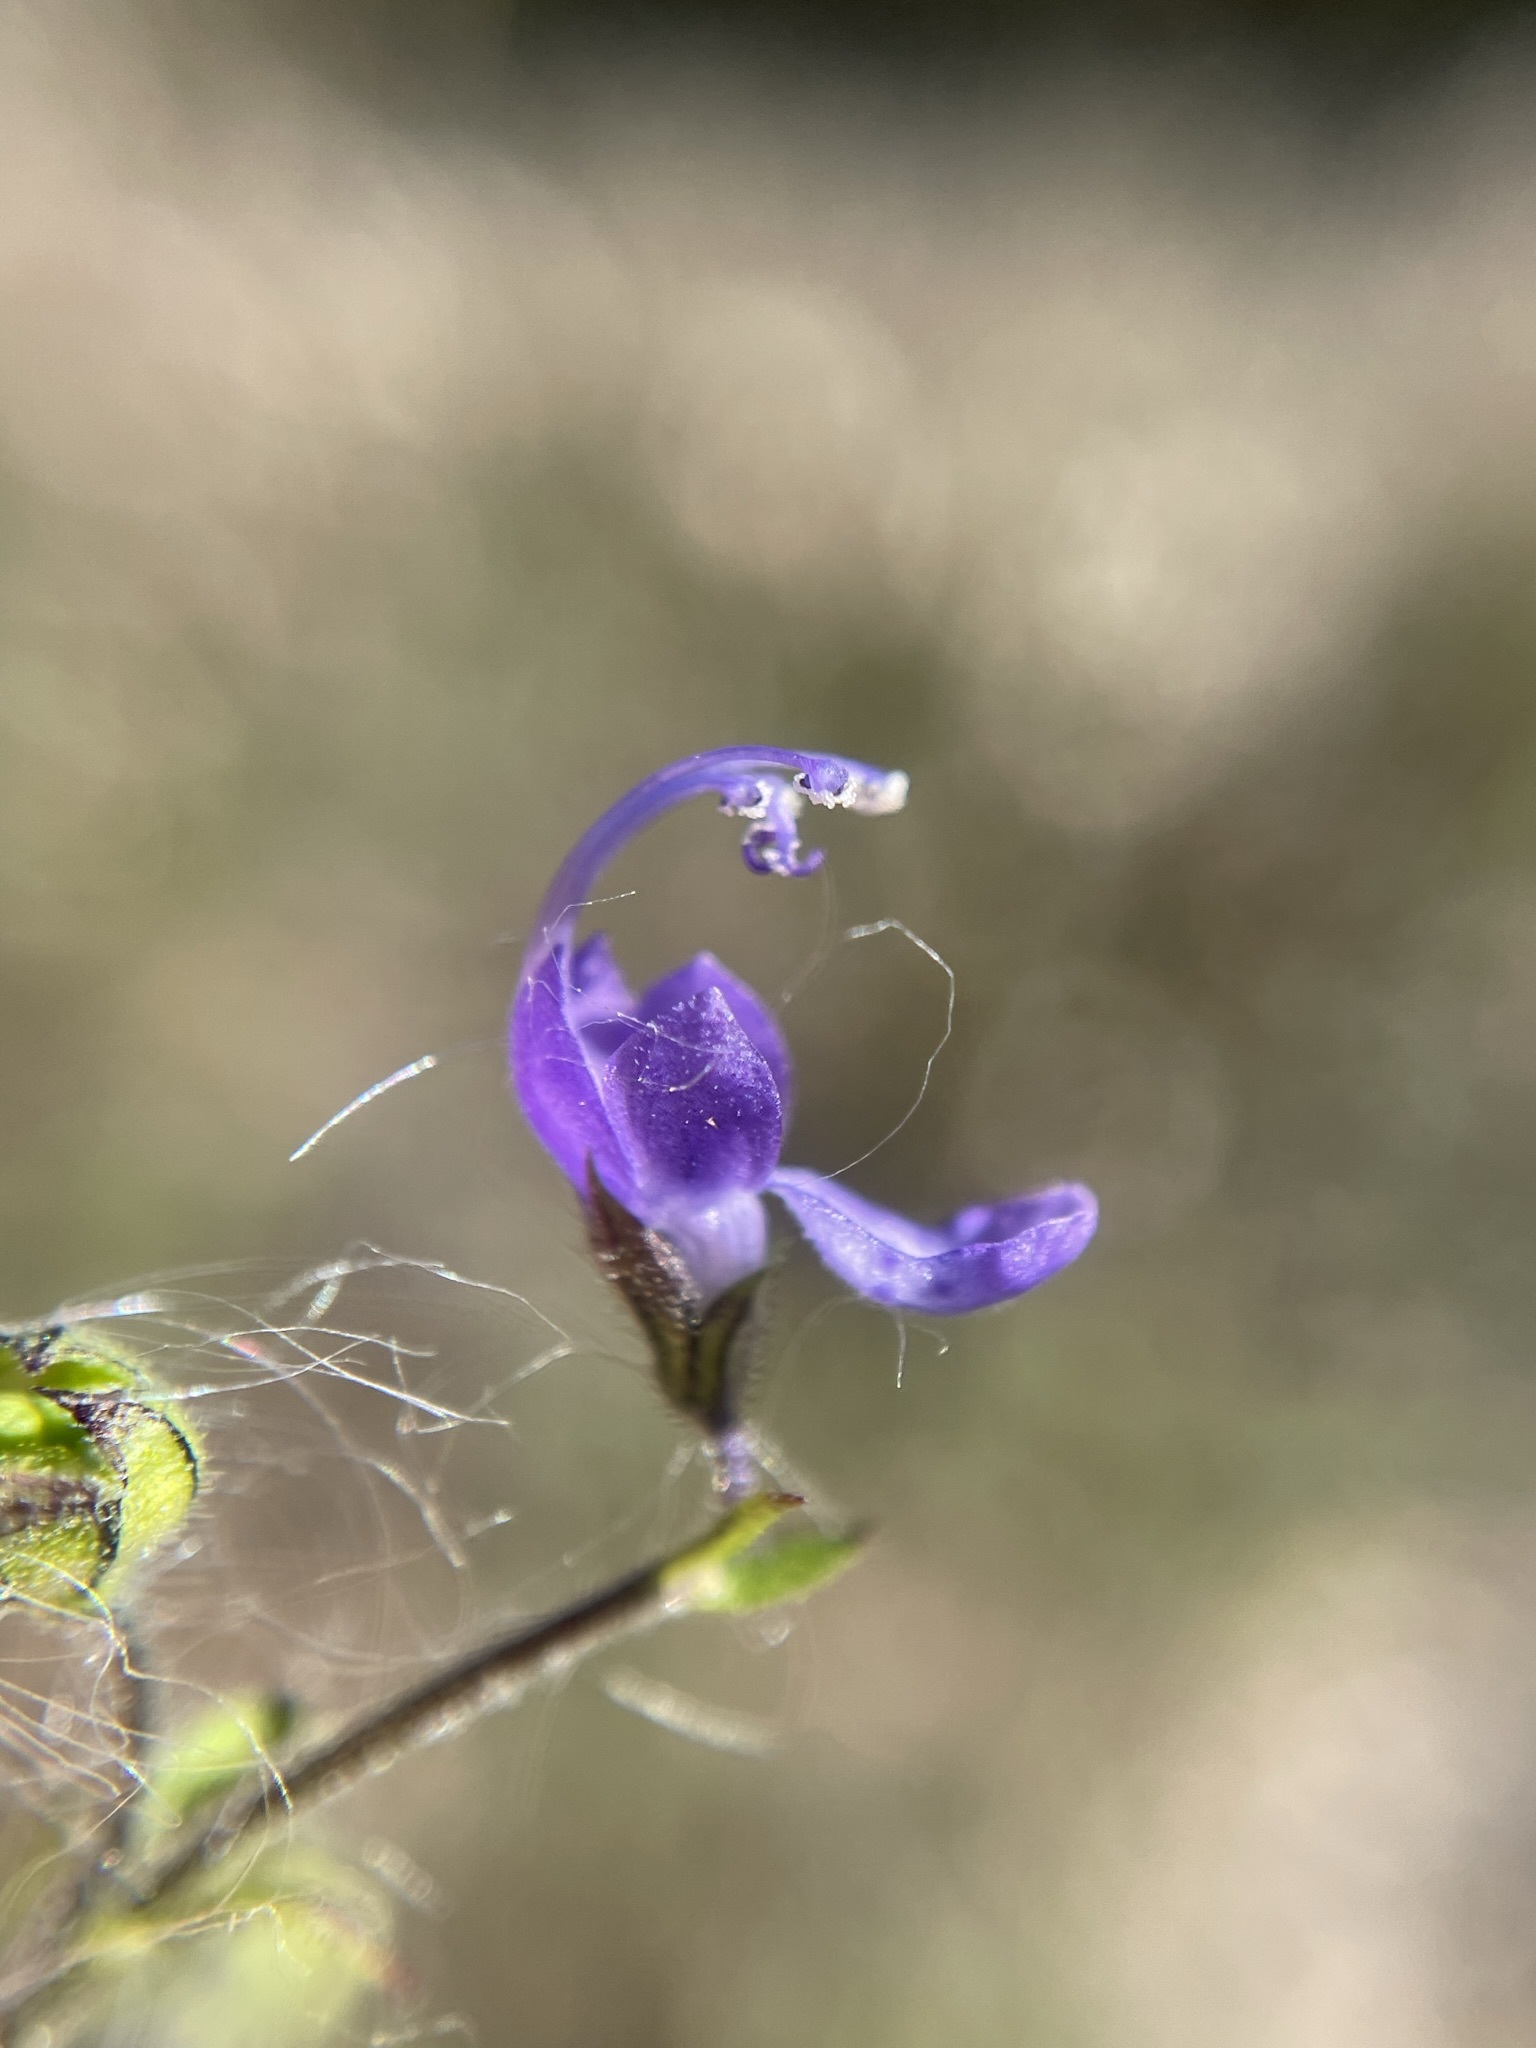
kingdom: Plantae
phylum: Tracheophyta
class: Magnoliopsida
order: Lamiales
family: Lamiaceae
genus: Trichostema
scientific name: Trichostema dichotomum
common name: Bastard pennyroyal
